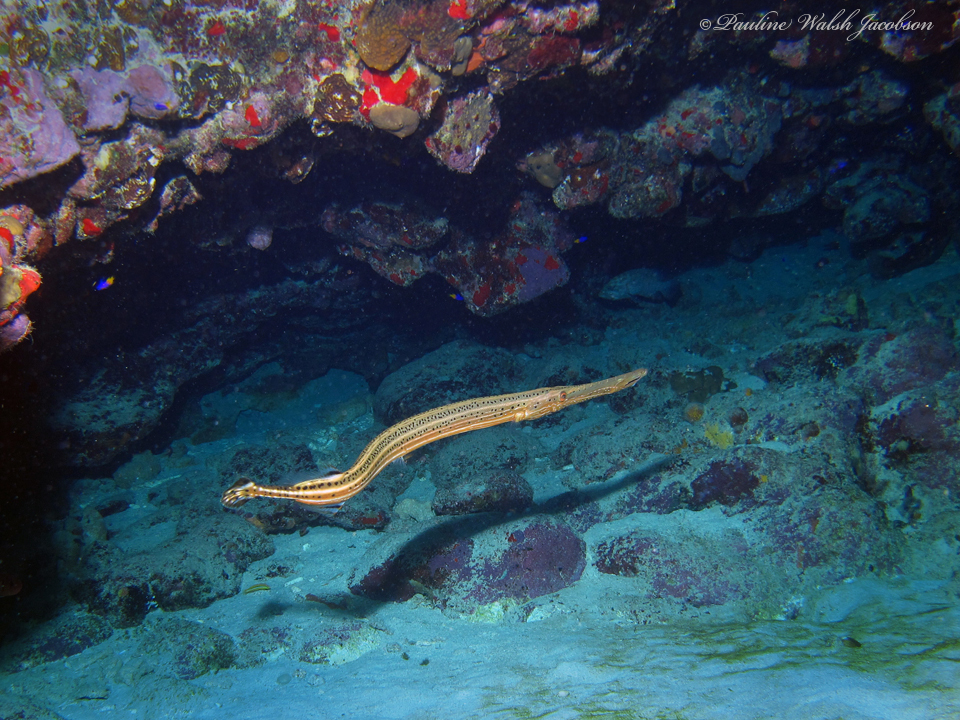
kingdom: Animalia
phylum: Chordata
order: Syngnathiformes
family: Aulostomidae
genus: Aulostomus
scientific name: Aulostomus maculatus
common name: West atlantic trumpetfish
